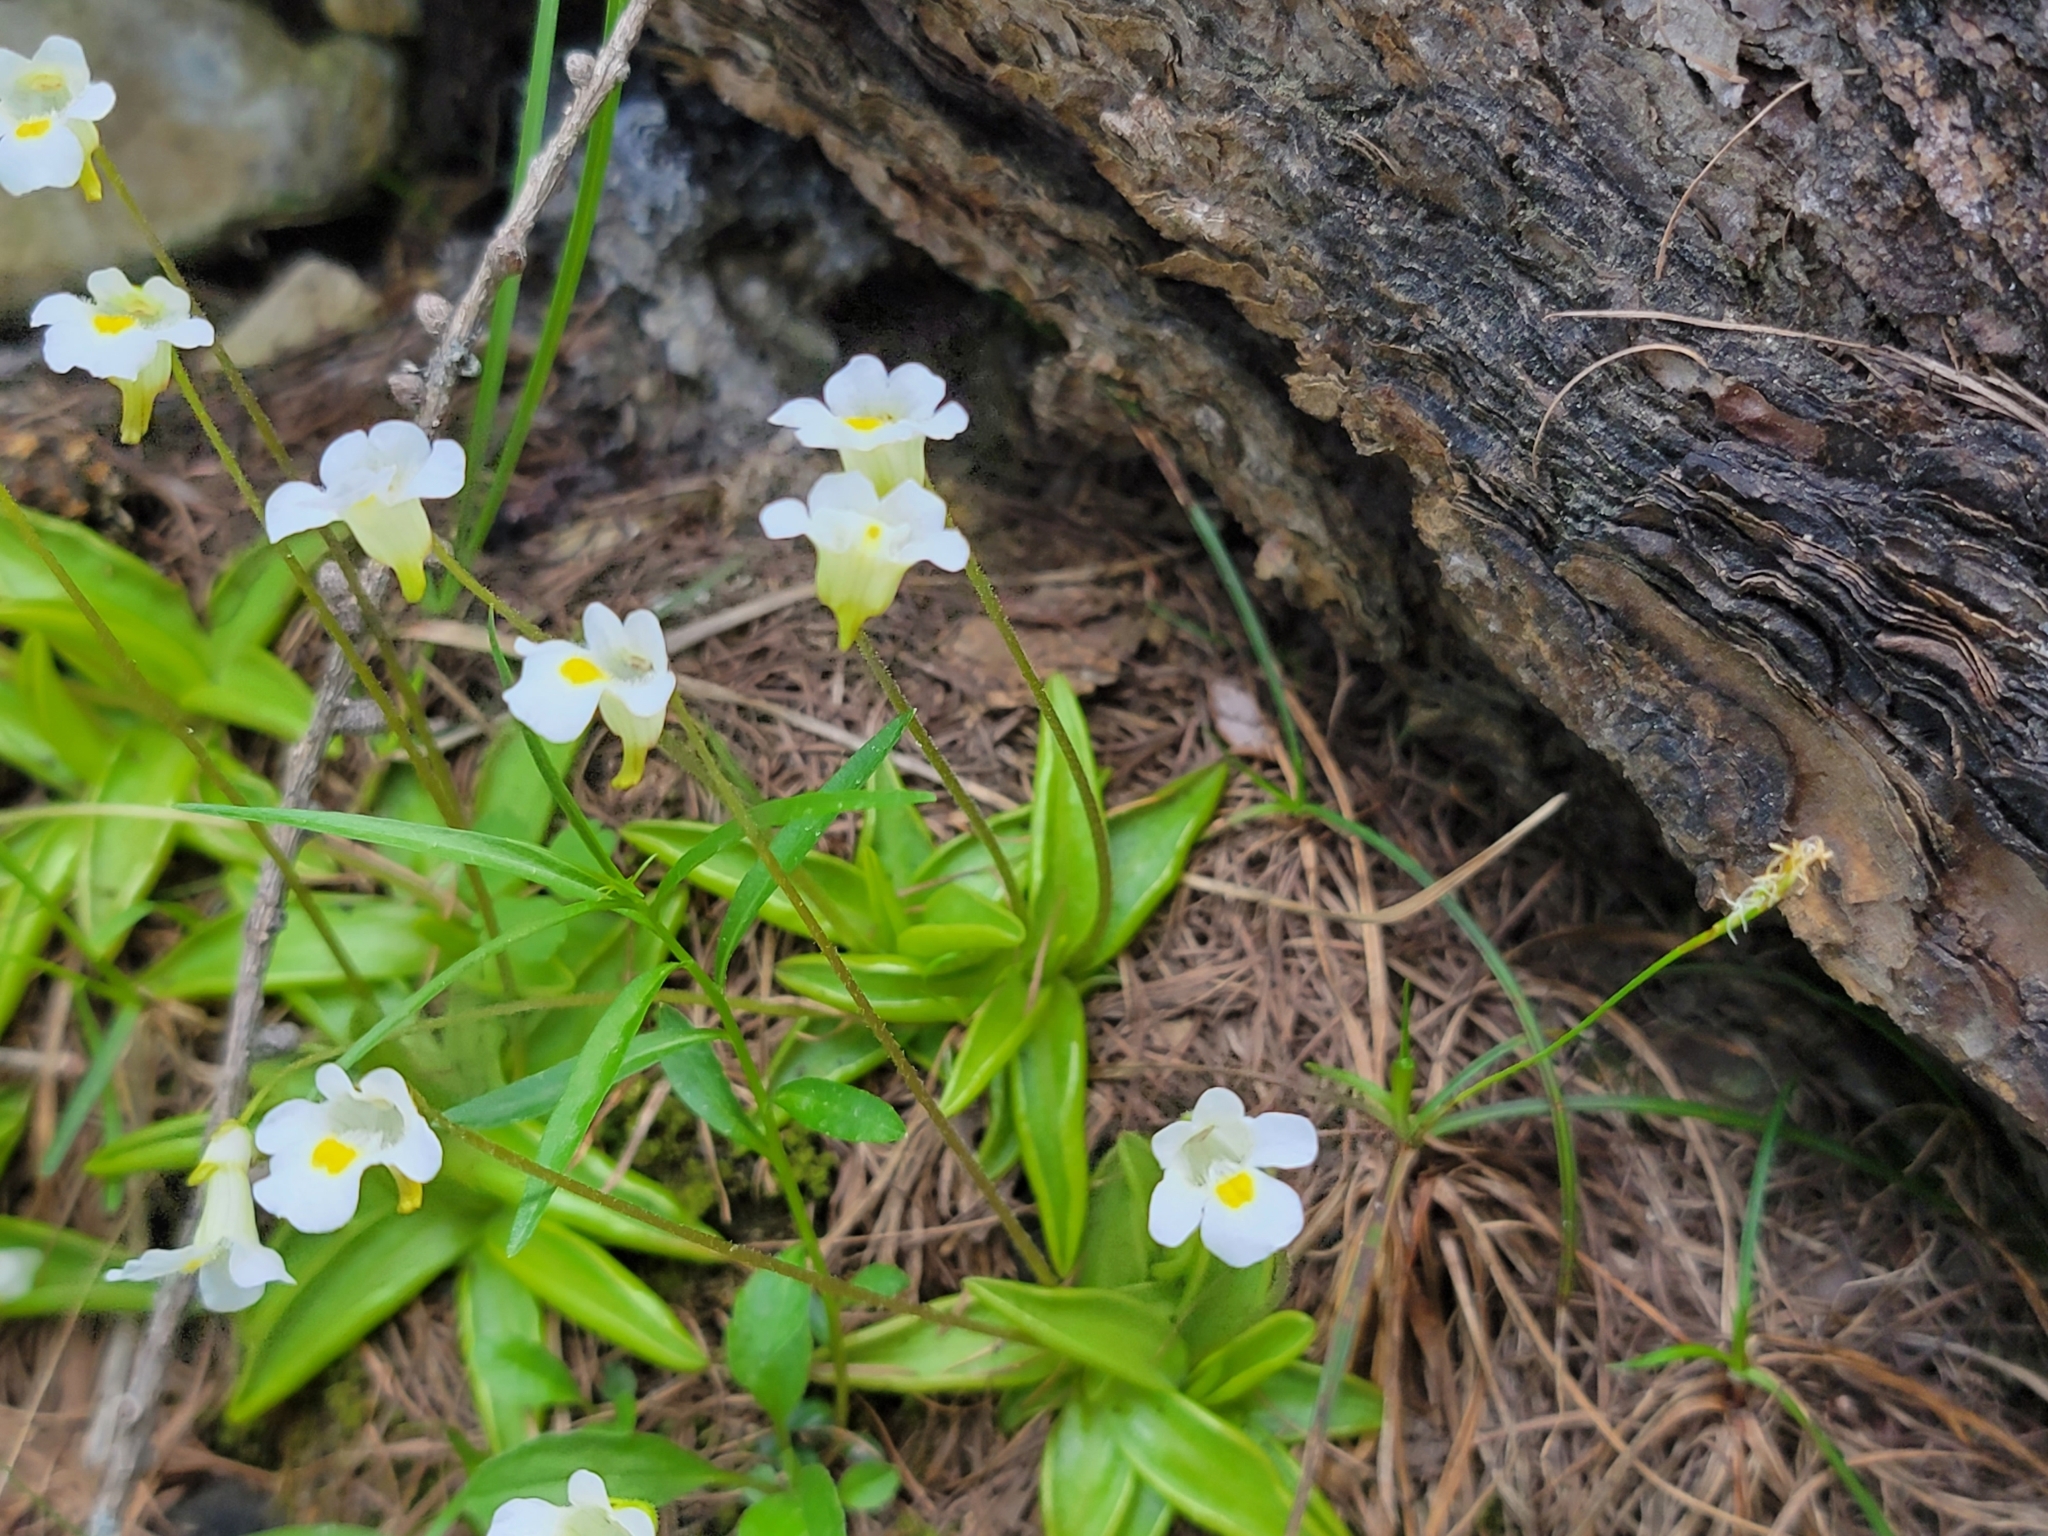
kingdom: Plantae
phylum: Tracheophyta
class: Magnoliopsida
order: Lamiales
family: Lentibulariaceae
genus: Pinguicula
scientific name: Pinguicula alpina
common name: Alpine butterwort
